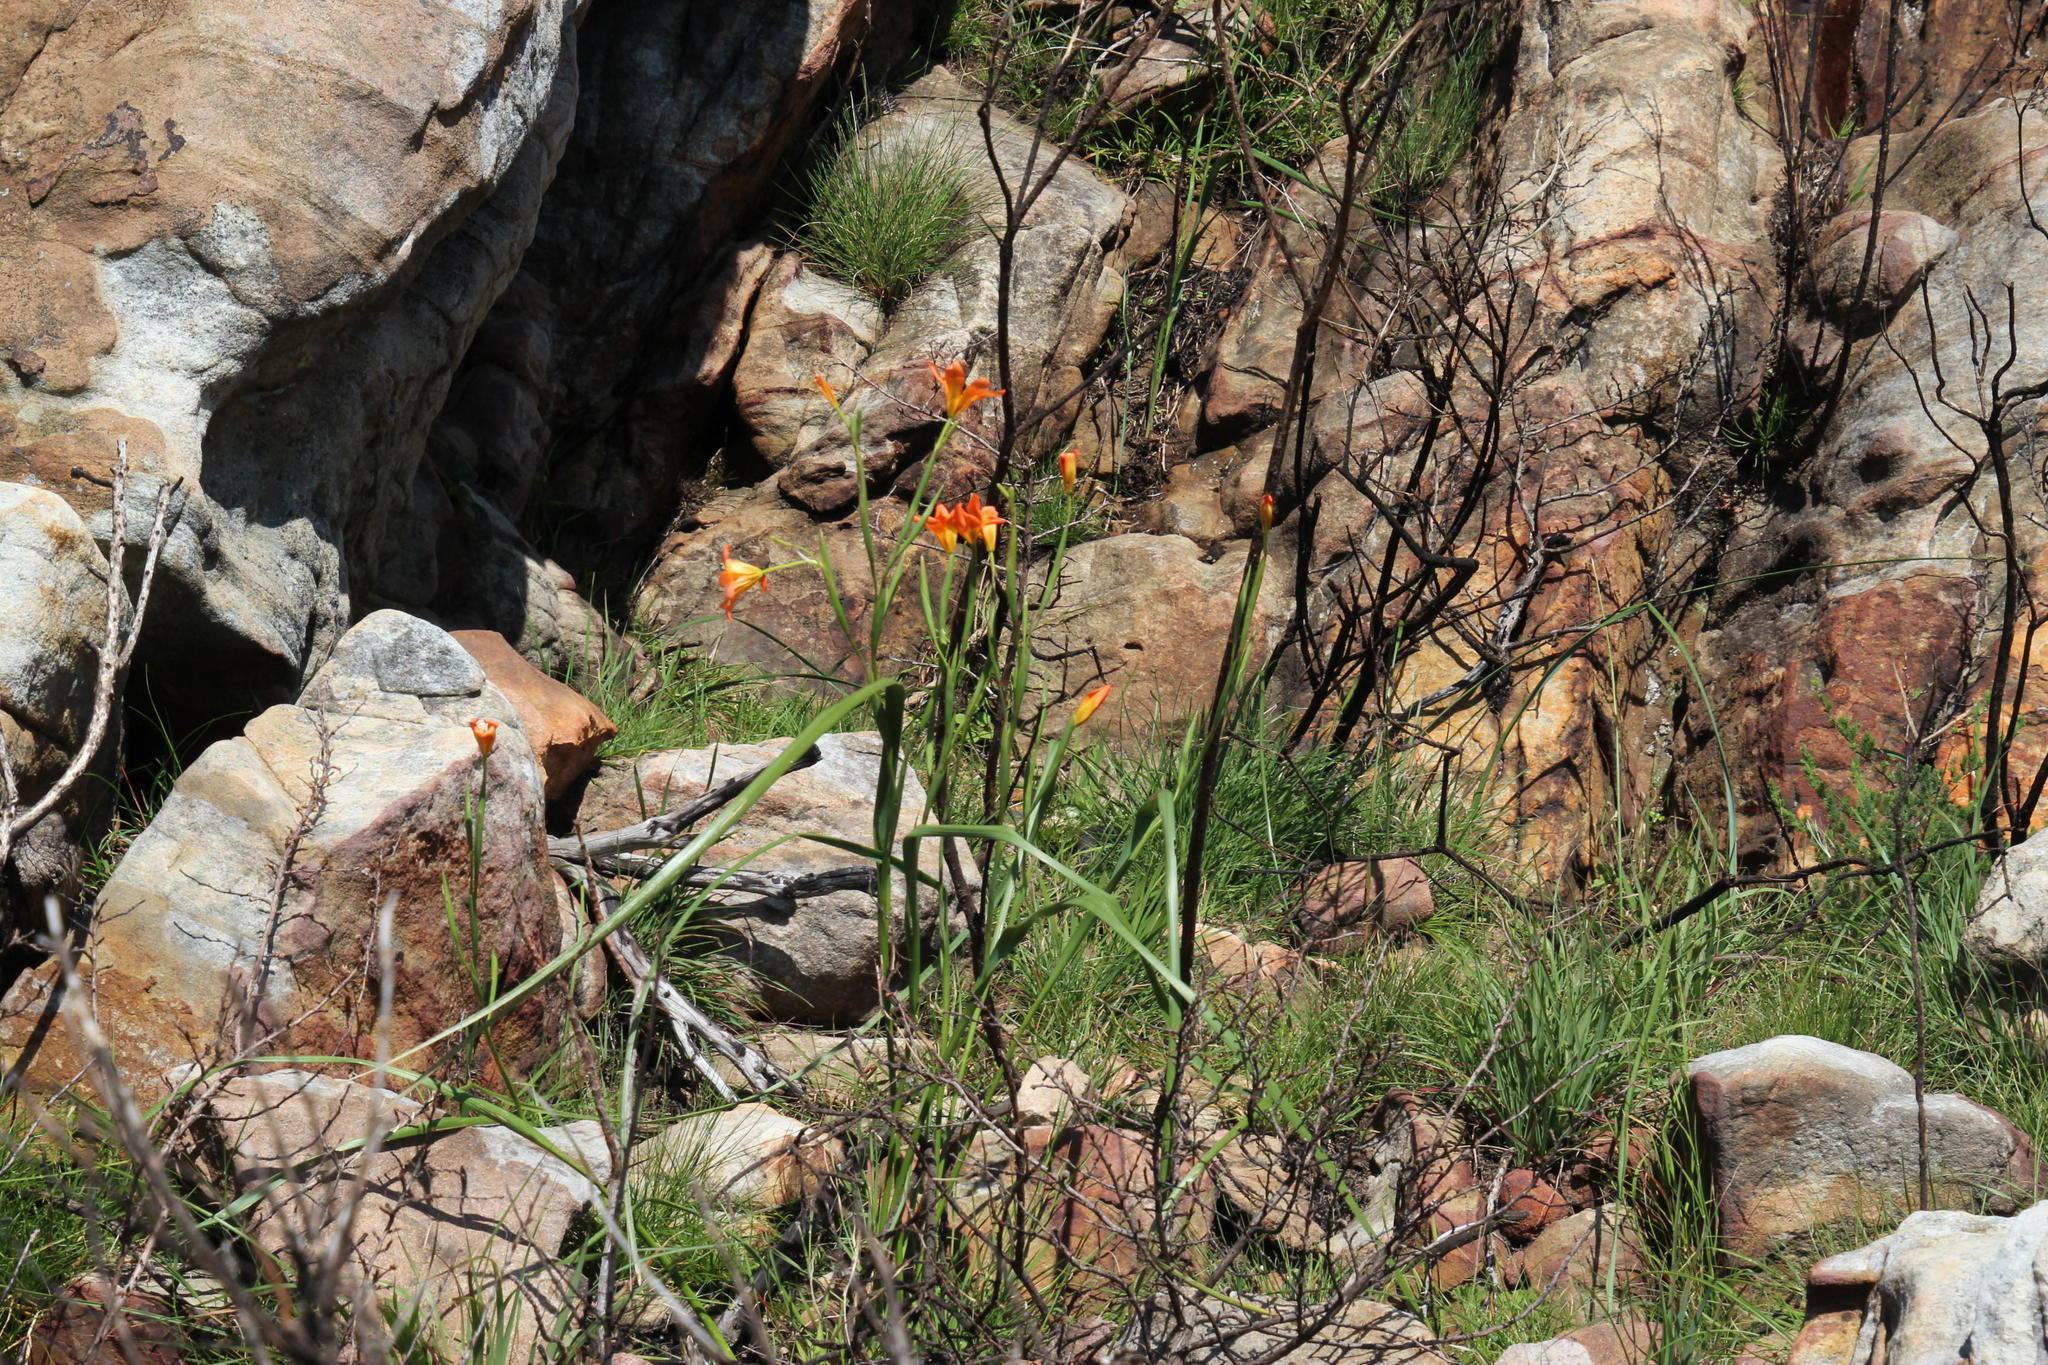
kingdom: Plantae
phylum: Tracheophyta
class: Liliopsida
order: Asparagales
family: Iridaceae
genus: Moraea
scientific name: Moraea ochroleuca
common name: Red tulp
